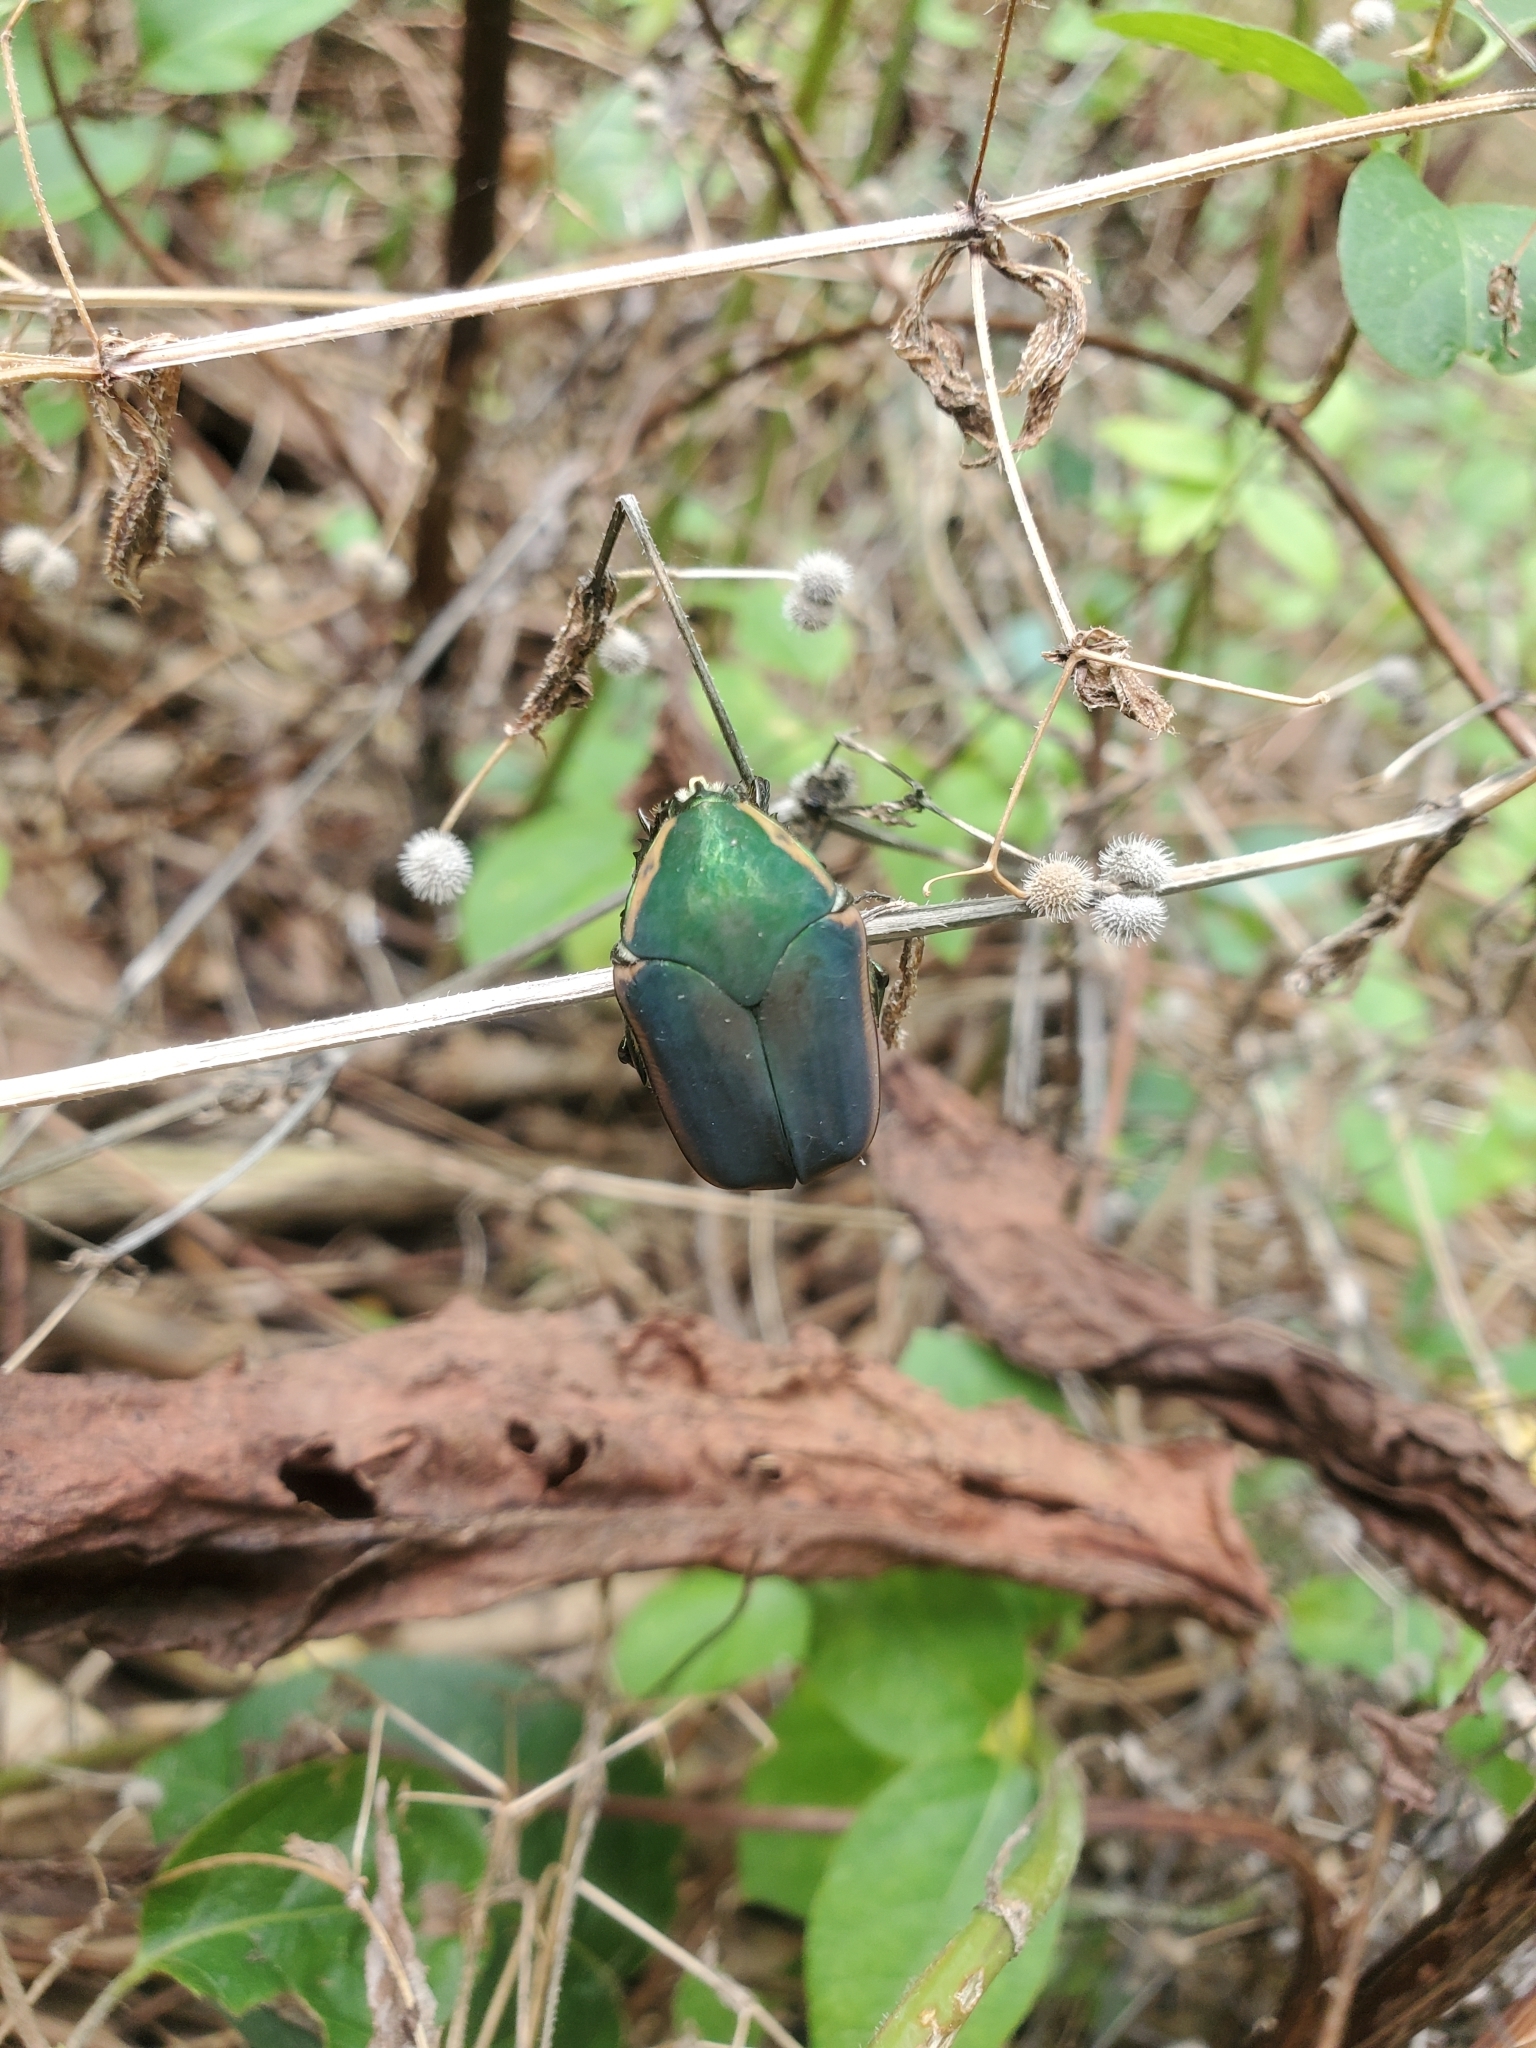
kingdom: Animalia
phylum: Arthropoda
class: Insecta
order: Coleoptera
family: Scarabaeidae
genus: Cotinis
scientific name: Cotinis nitida
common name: Common green june beetle
